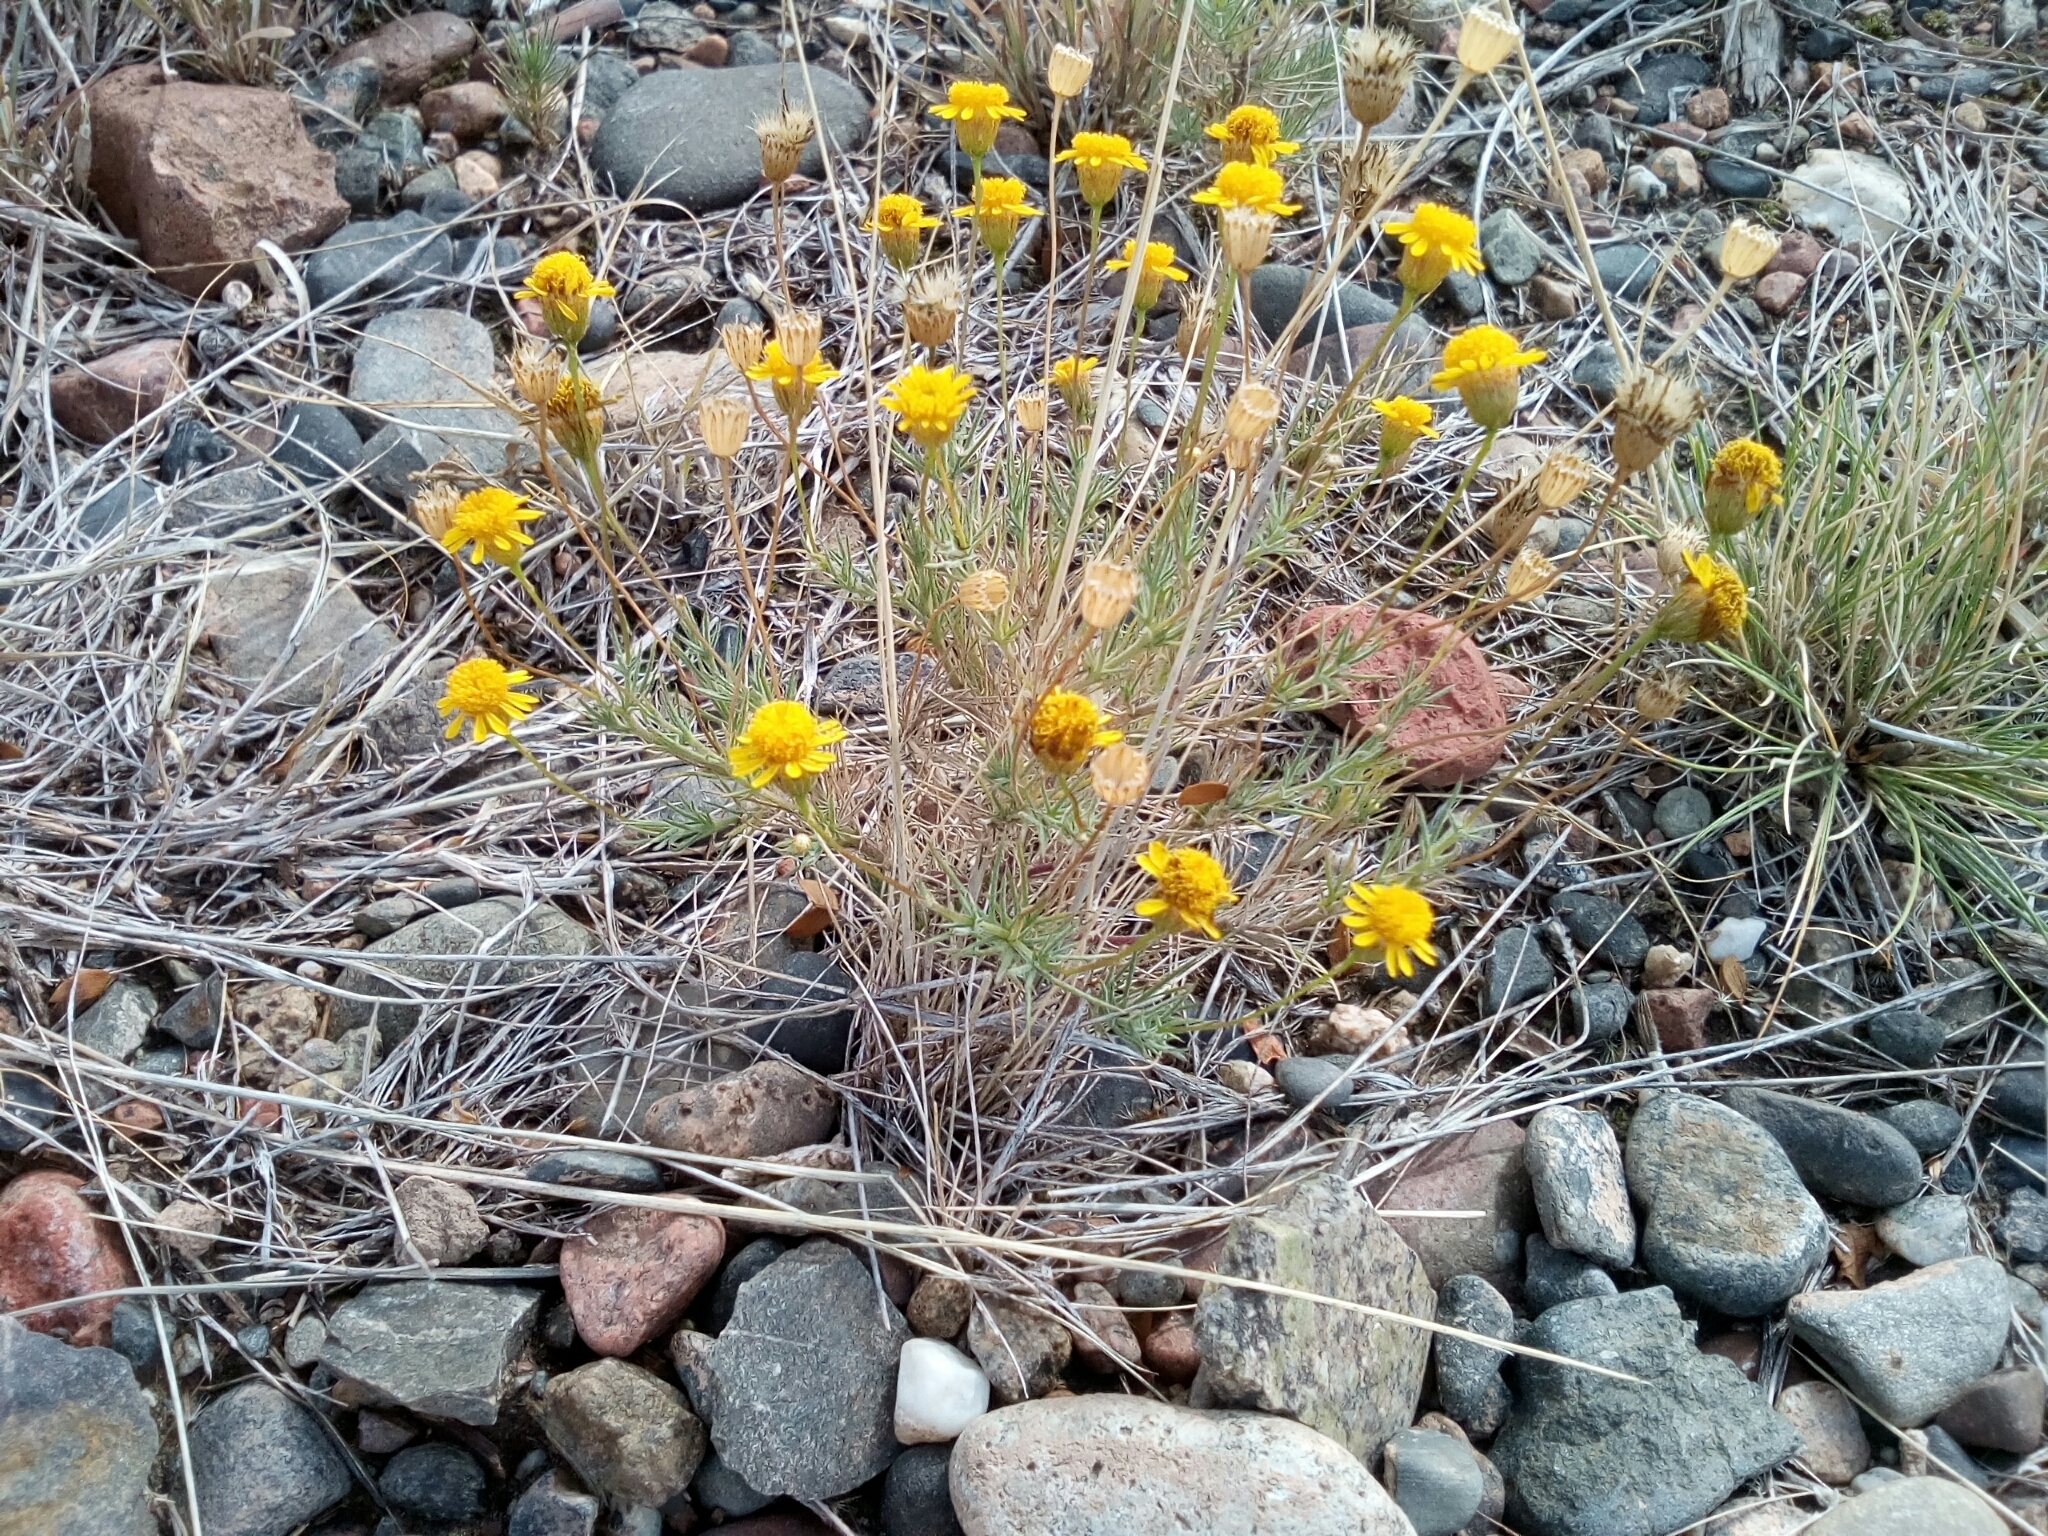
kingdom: Plantae
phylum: Tracheophyta
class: Magnoliopsida
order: Asterales
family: Asteraceae
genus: Thymophylla
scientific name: Thymophylla pentachaeta
